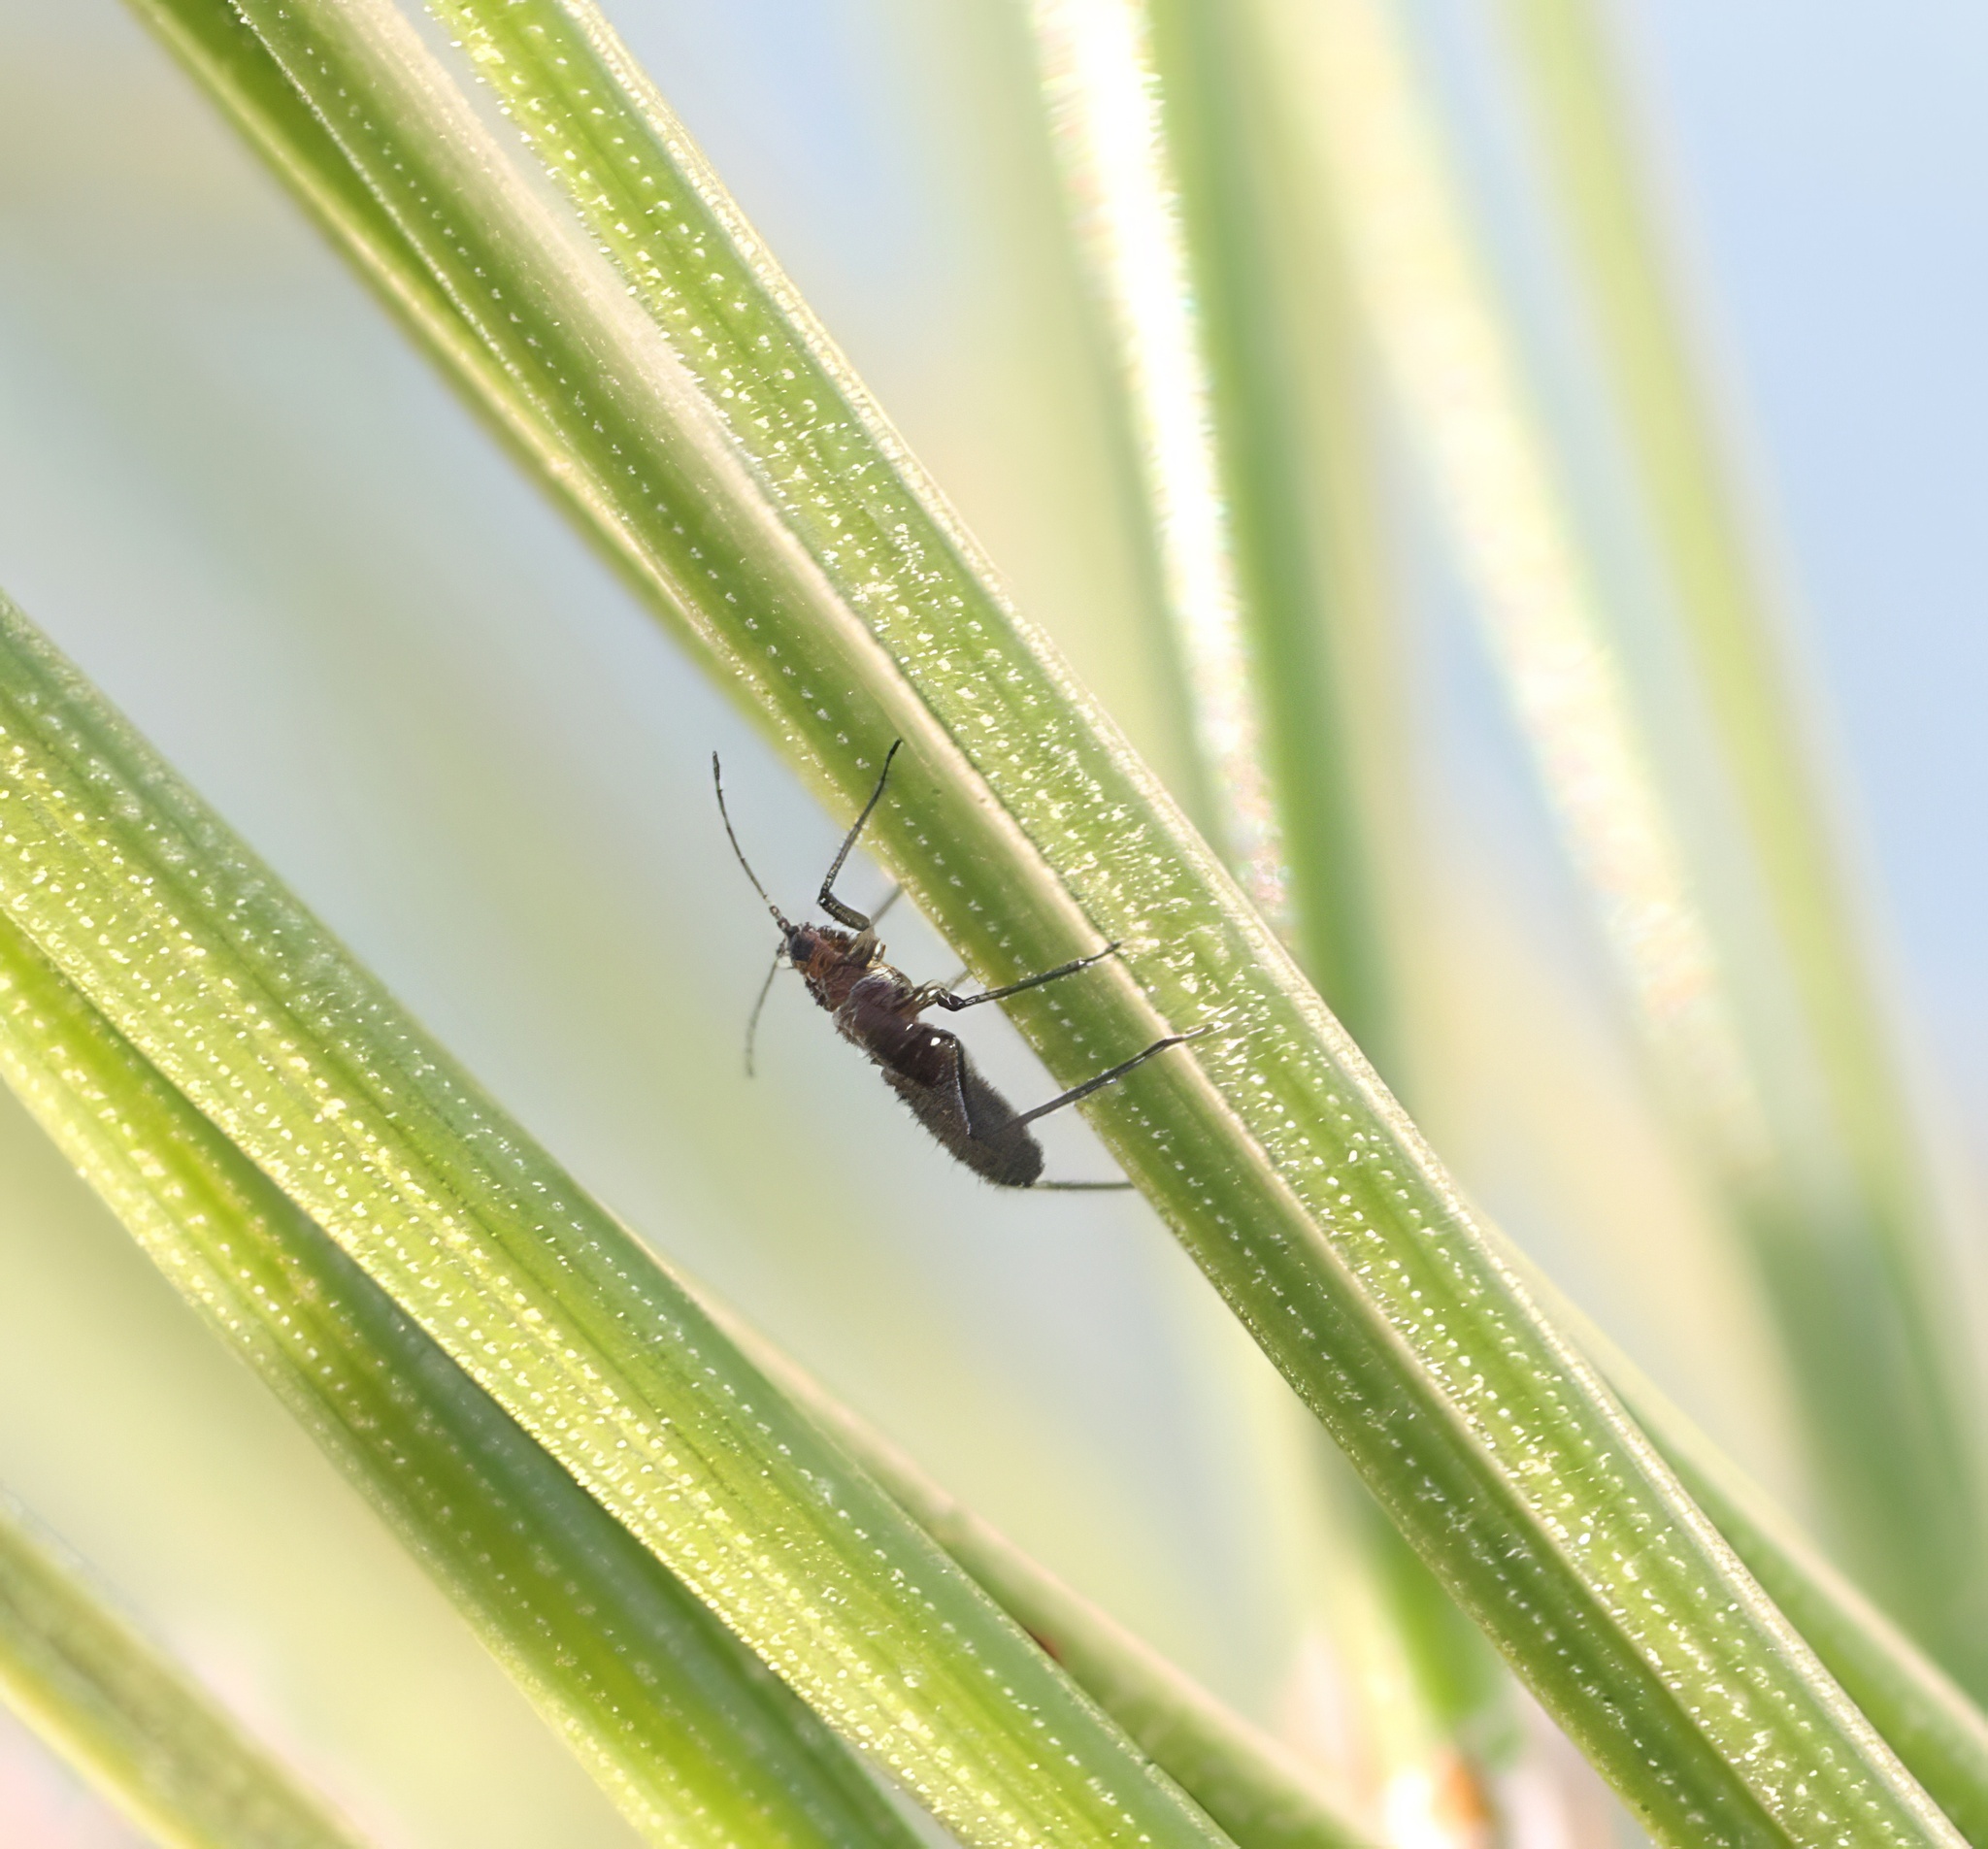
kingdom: Animalia
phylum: Arthropoda
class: Insecta
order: Hemiptera
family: Aphididae
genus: Eulachnus
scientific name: Eulachnus rileyi
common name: Active gray pine needle aphid
